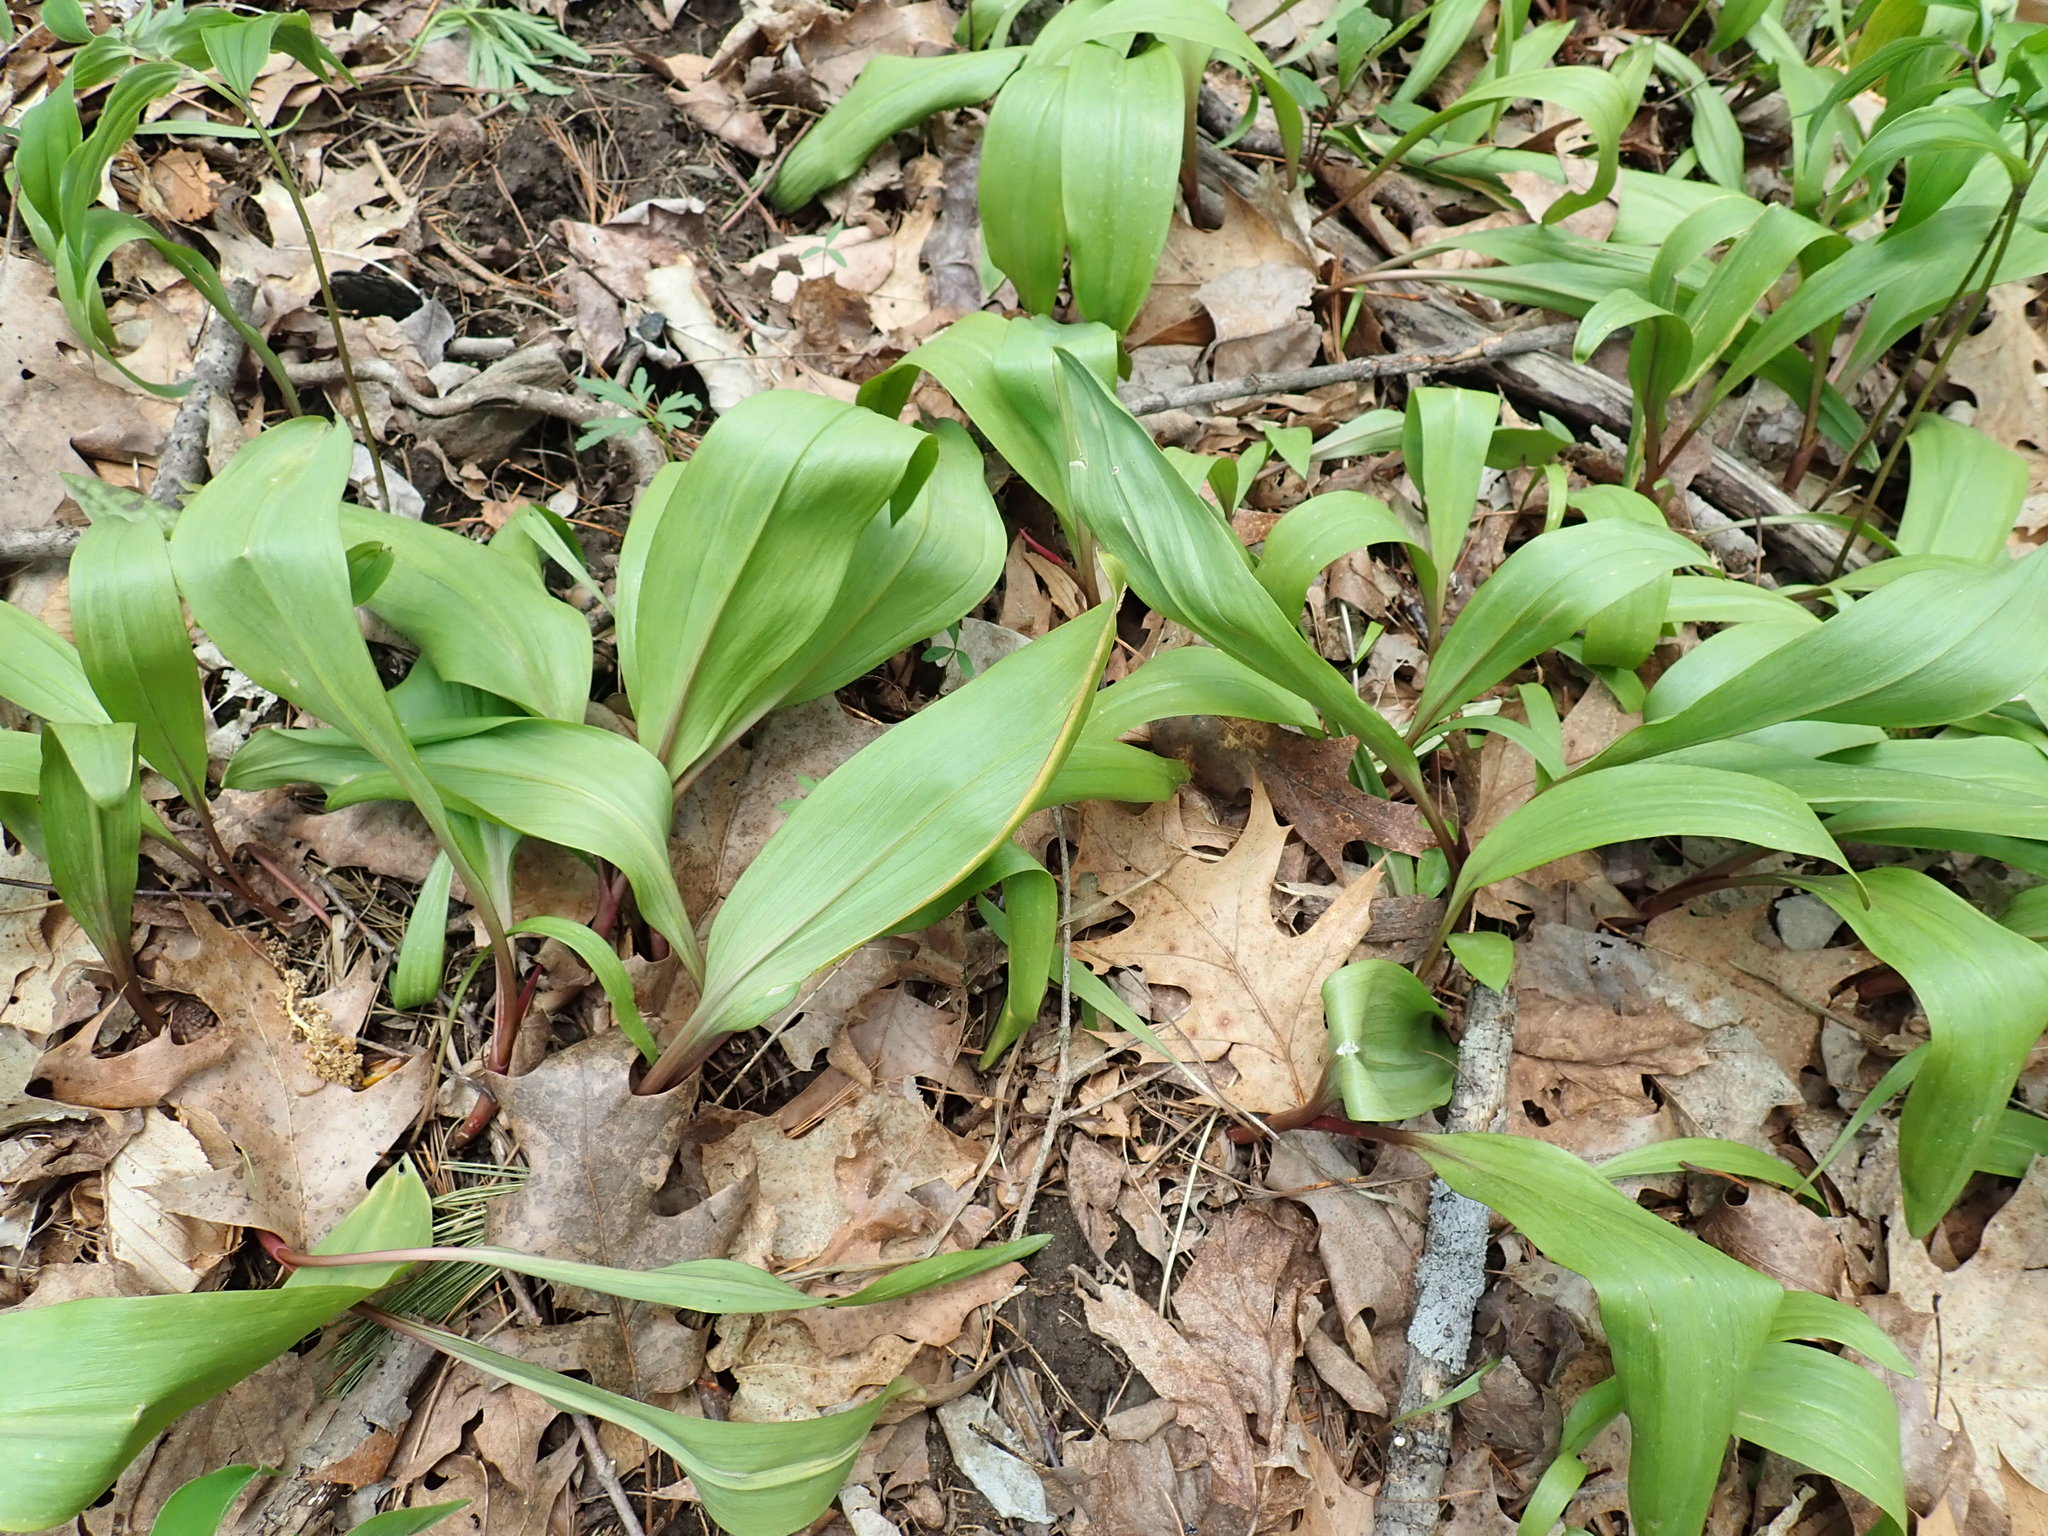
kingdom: Plantae
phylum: Tracheophyta
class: Liliopsida
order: Asparagales
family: Amaryllidaceae
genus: Allium
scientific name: Allium tricoccum
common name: Ramp
